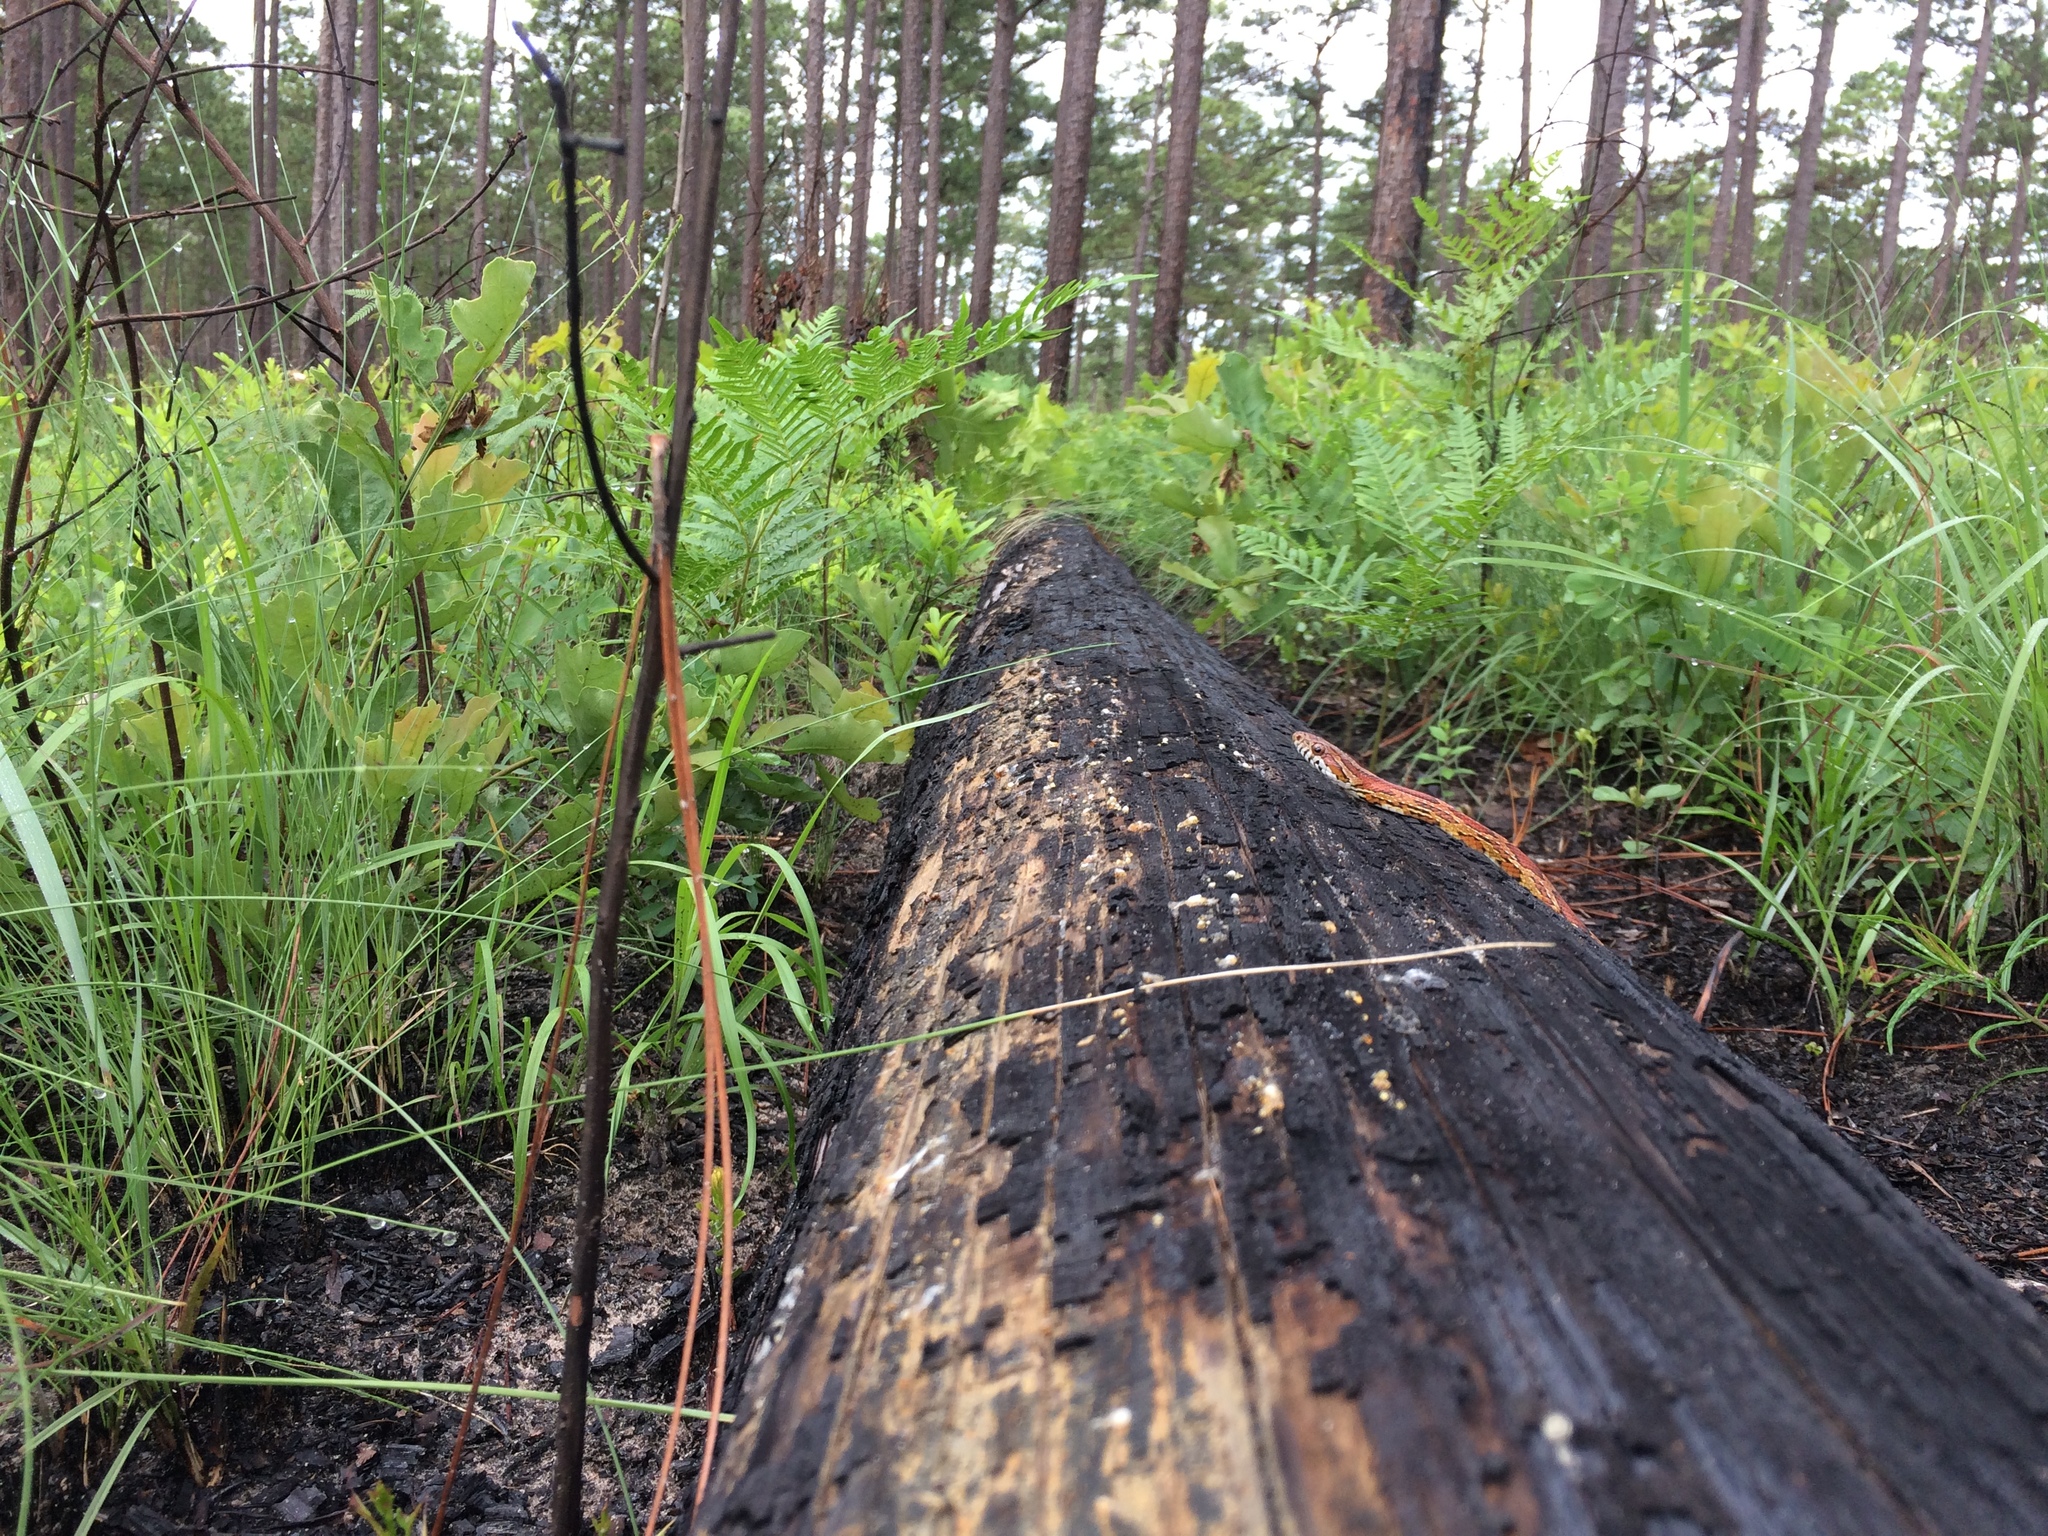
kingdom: Animalia
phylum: Chordata
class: Squamata
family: Colubridae
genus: Pantherophis
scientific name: Pantherophis guttatus
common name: Red cornsnake
